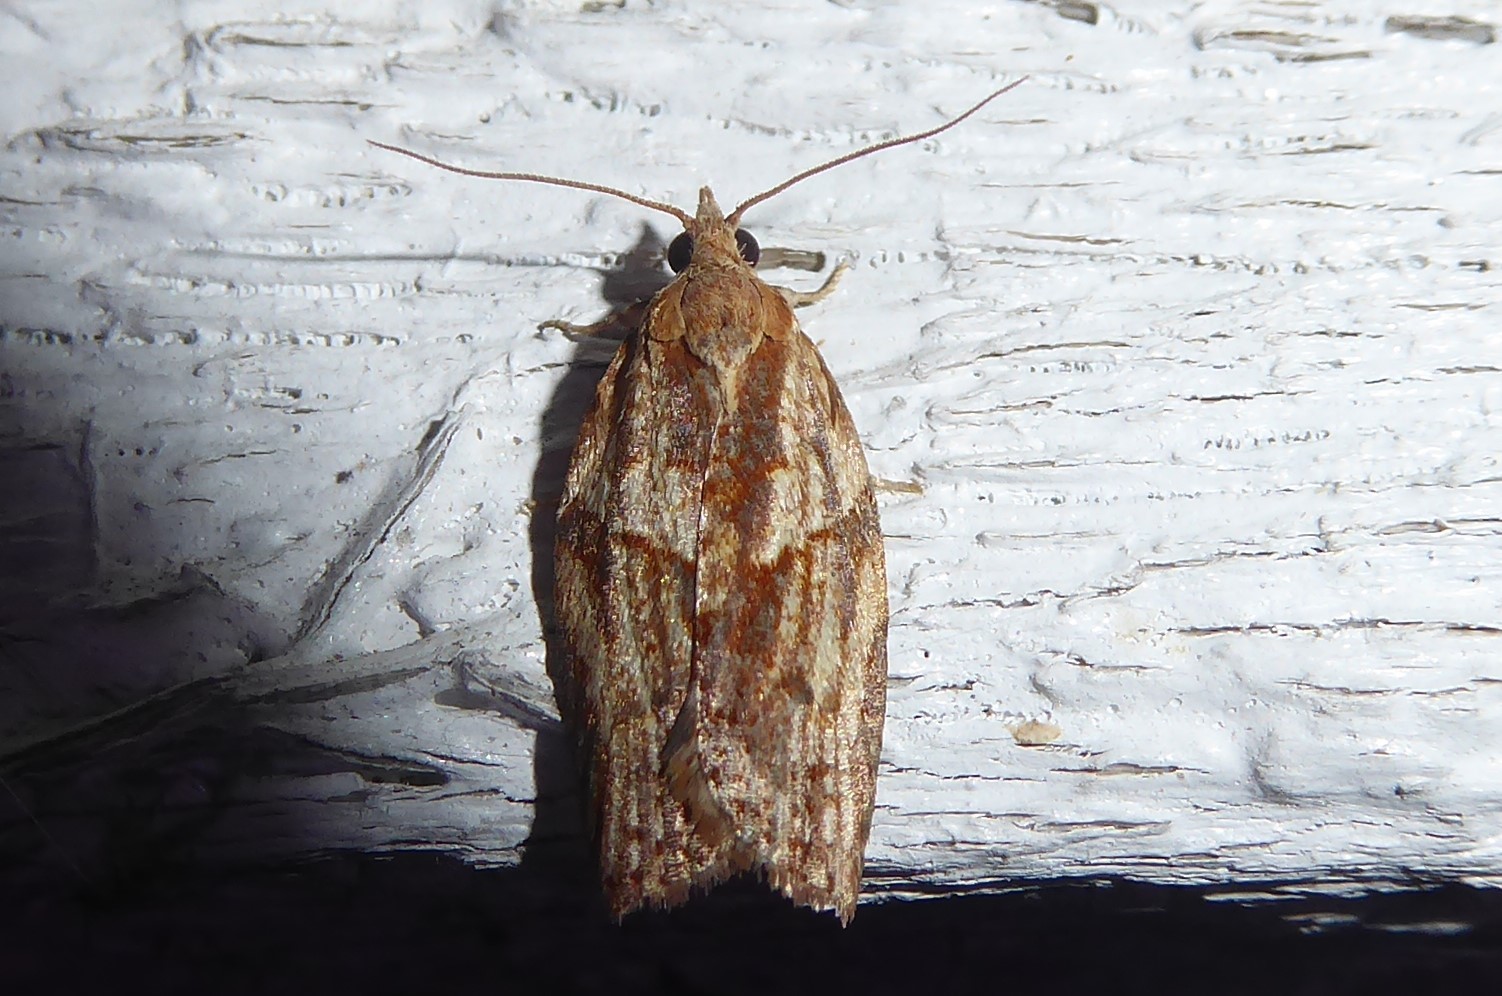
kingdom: Animalia
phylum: Arthropoda
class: Insecta
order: Lepidoptera
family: Tortricidae
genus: Epiphyas
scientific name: Epiphyas postvittana
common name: Light brown apple moth
